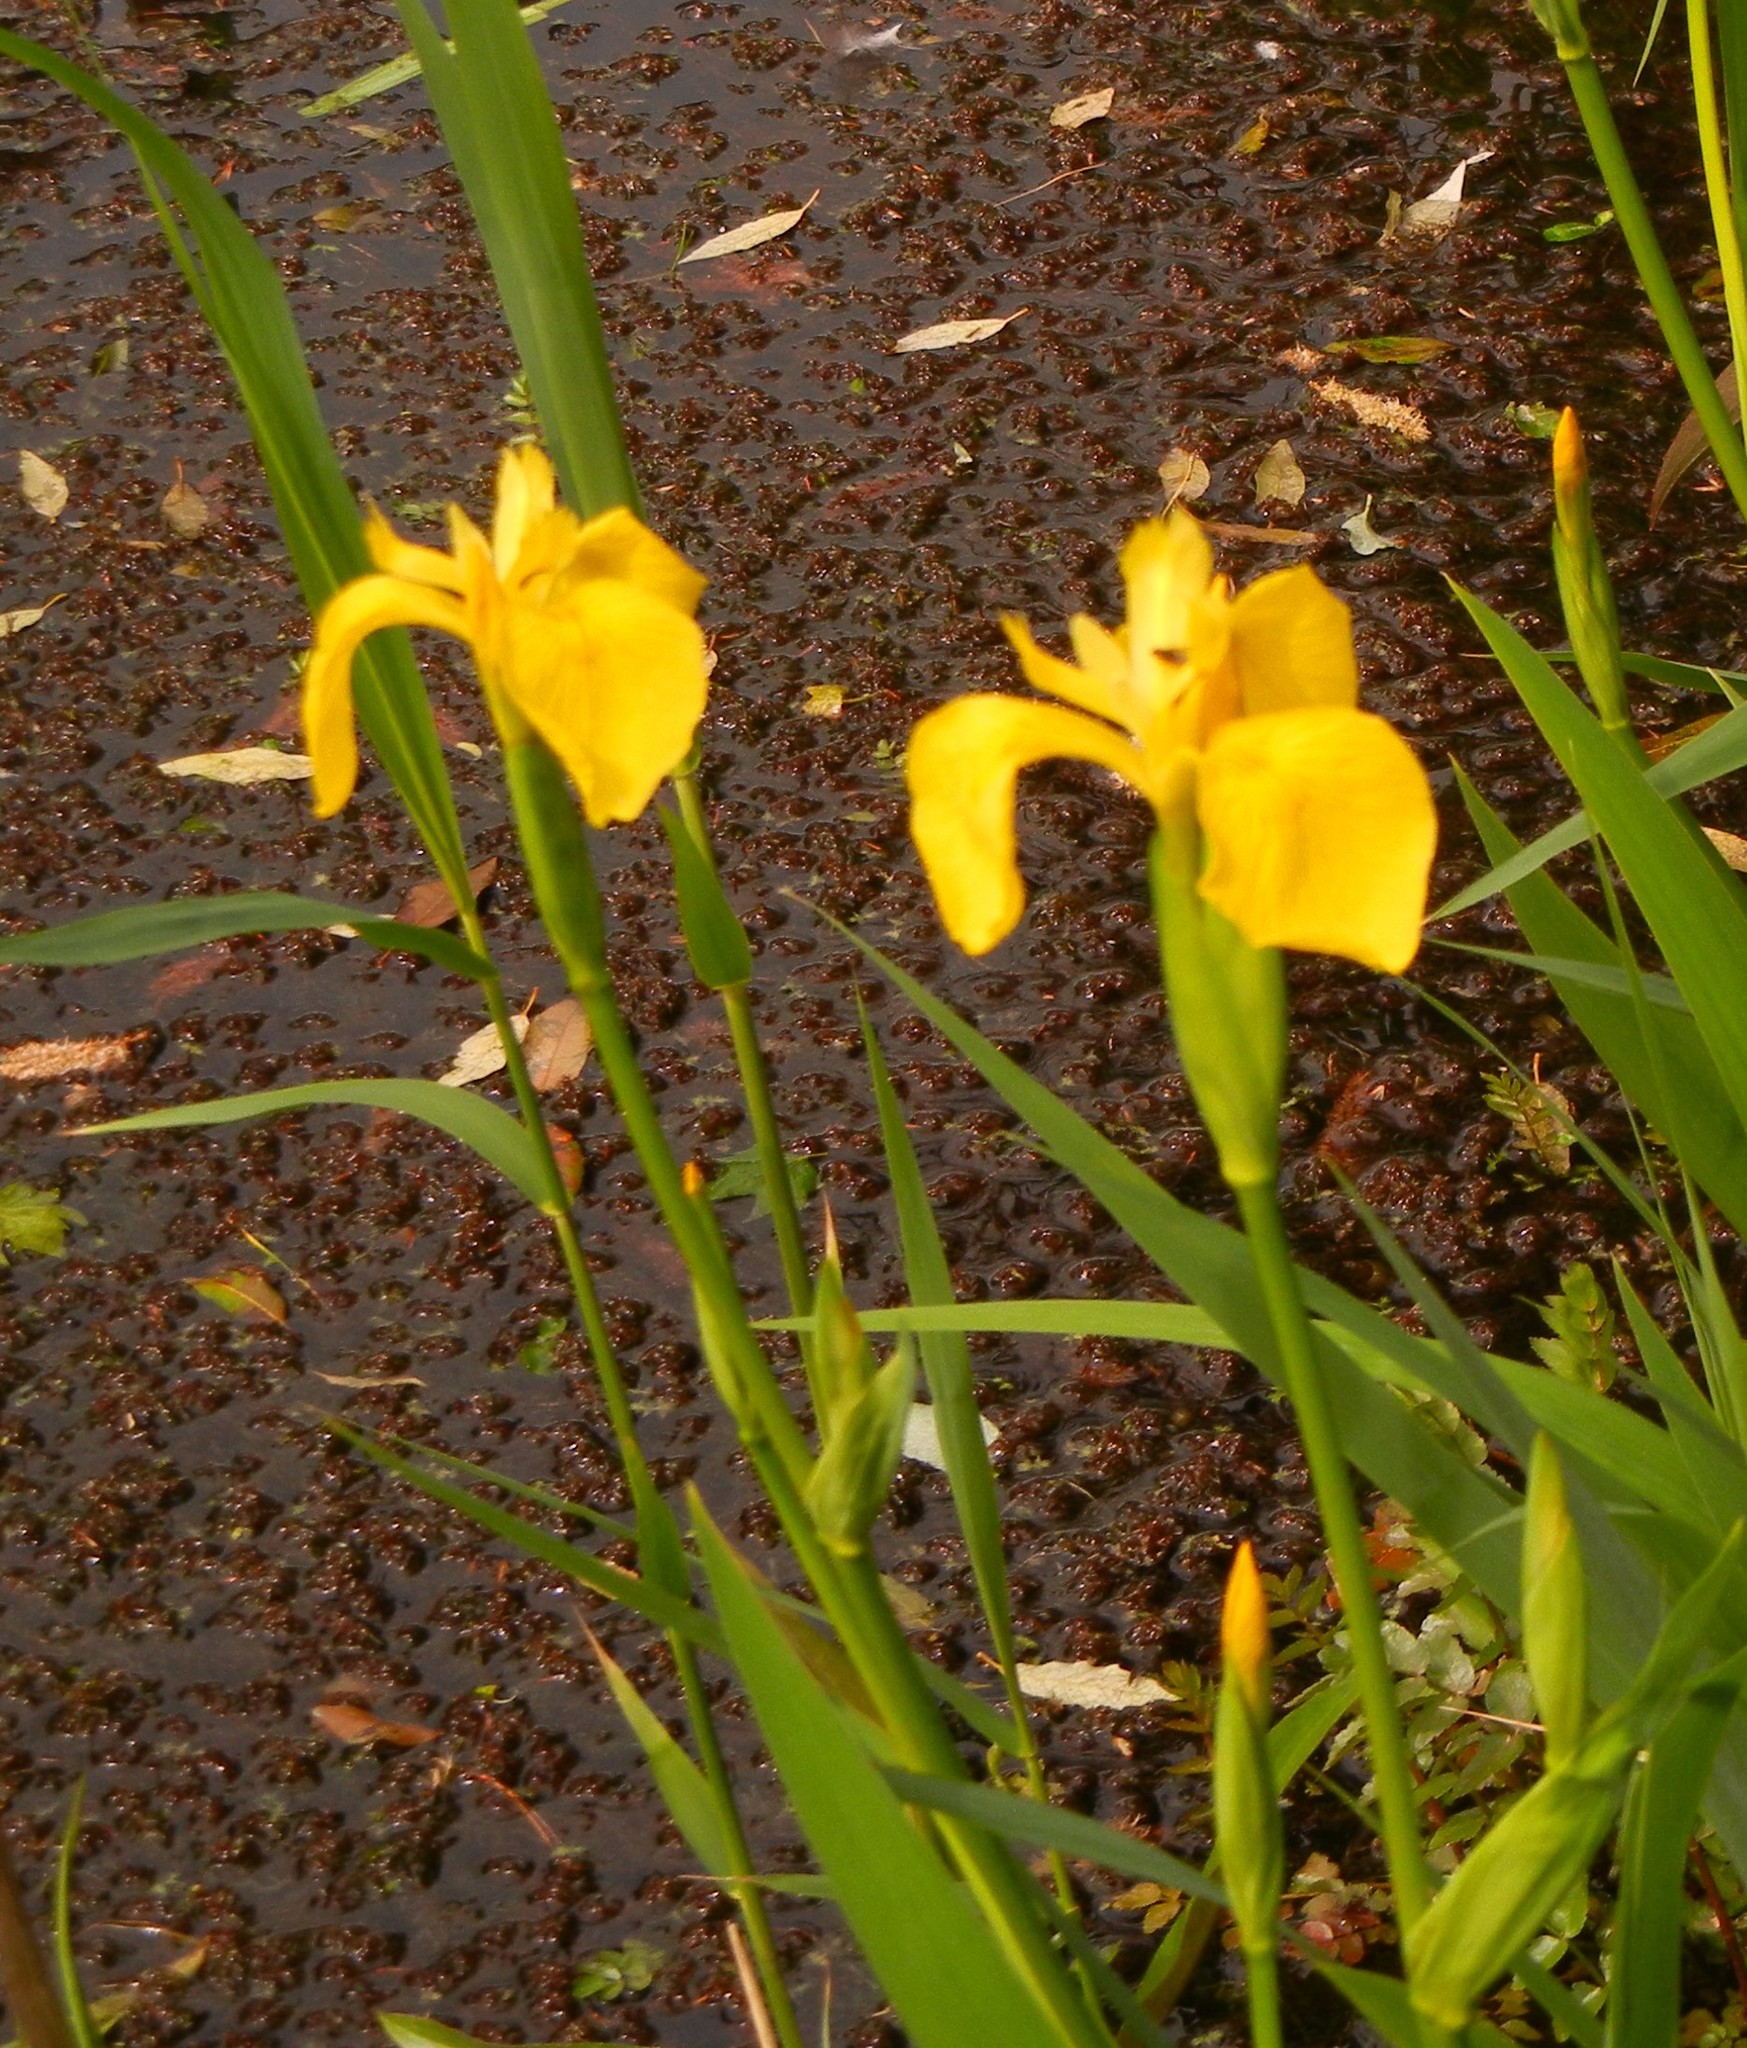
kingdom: Plantae
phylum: Tracheophyta
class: Liliopsida
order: Asparagales
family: Iridaceae
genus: Iris
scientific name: Iris pseudacorus
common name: Yellow flag
